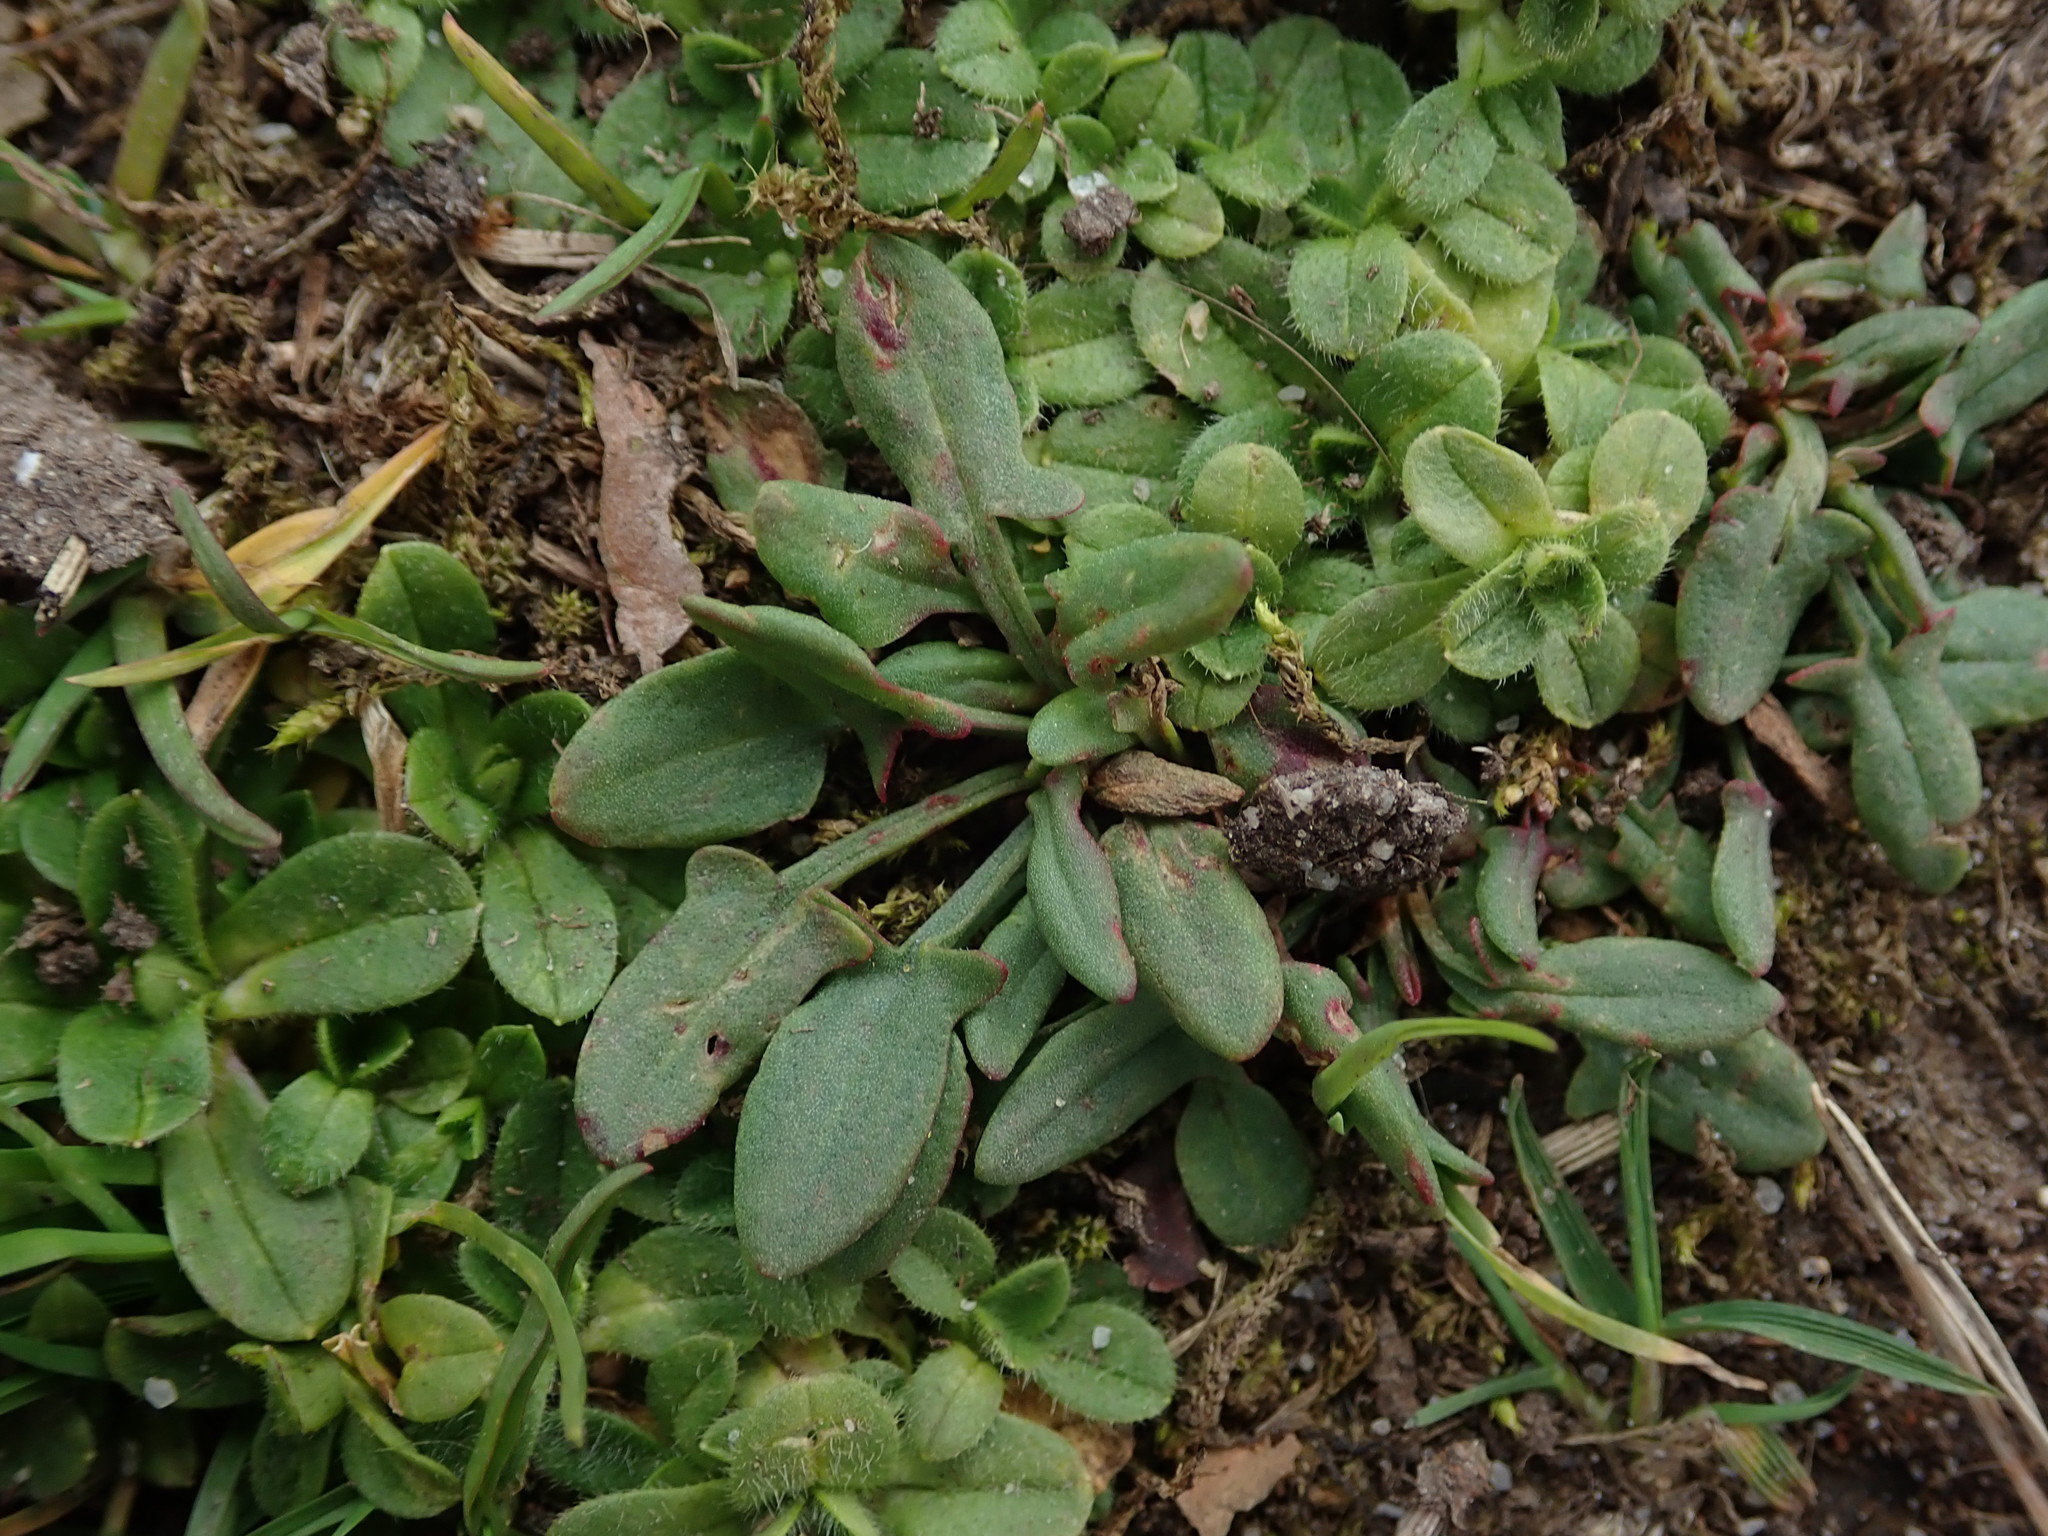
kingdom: Plantae
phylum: Tracheophyta
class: Magnoliopsida
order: Caryophyllales
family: Polygonaceae
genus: Rumex
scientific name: Rumex acetosella
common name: Common sheep sorrel
